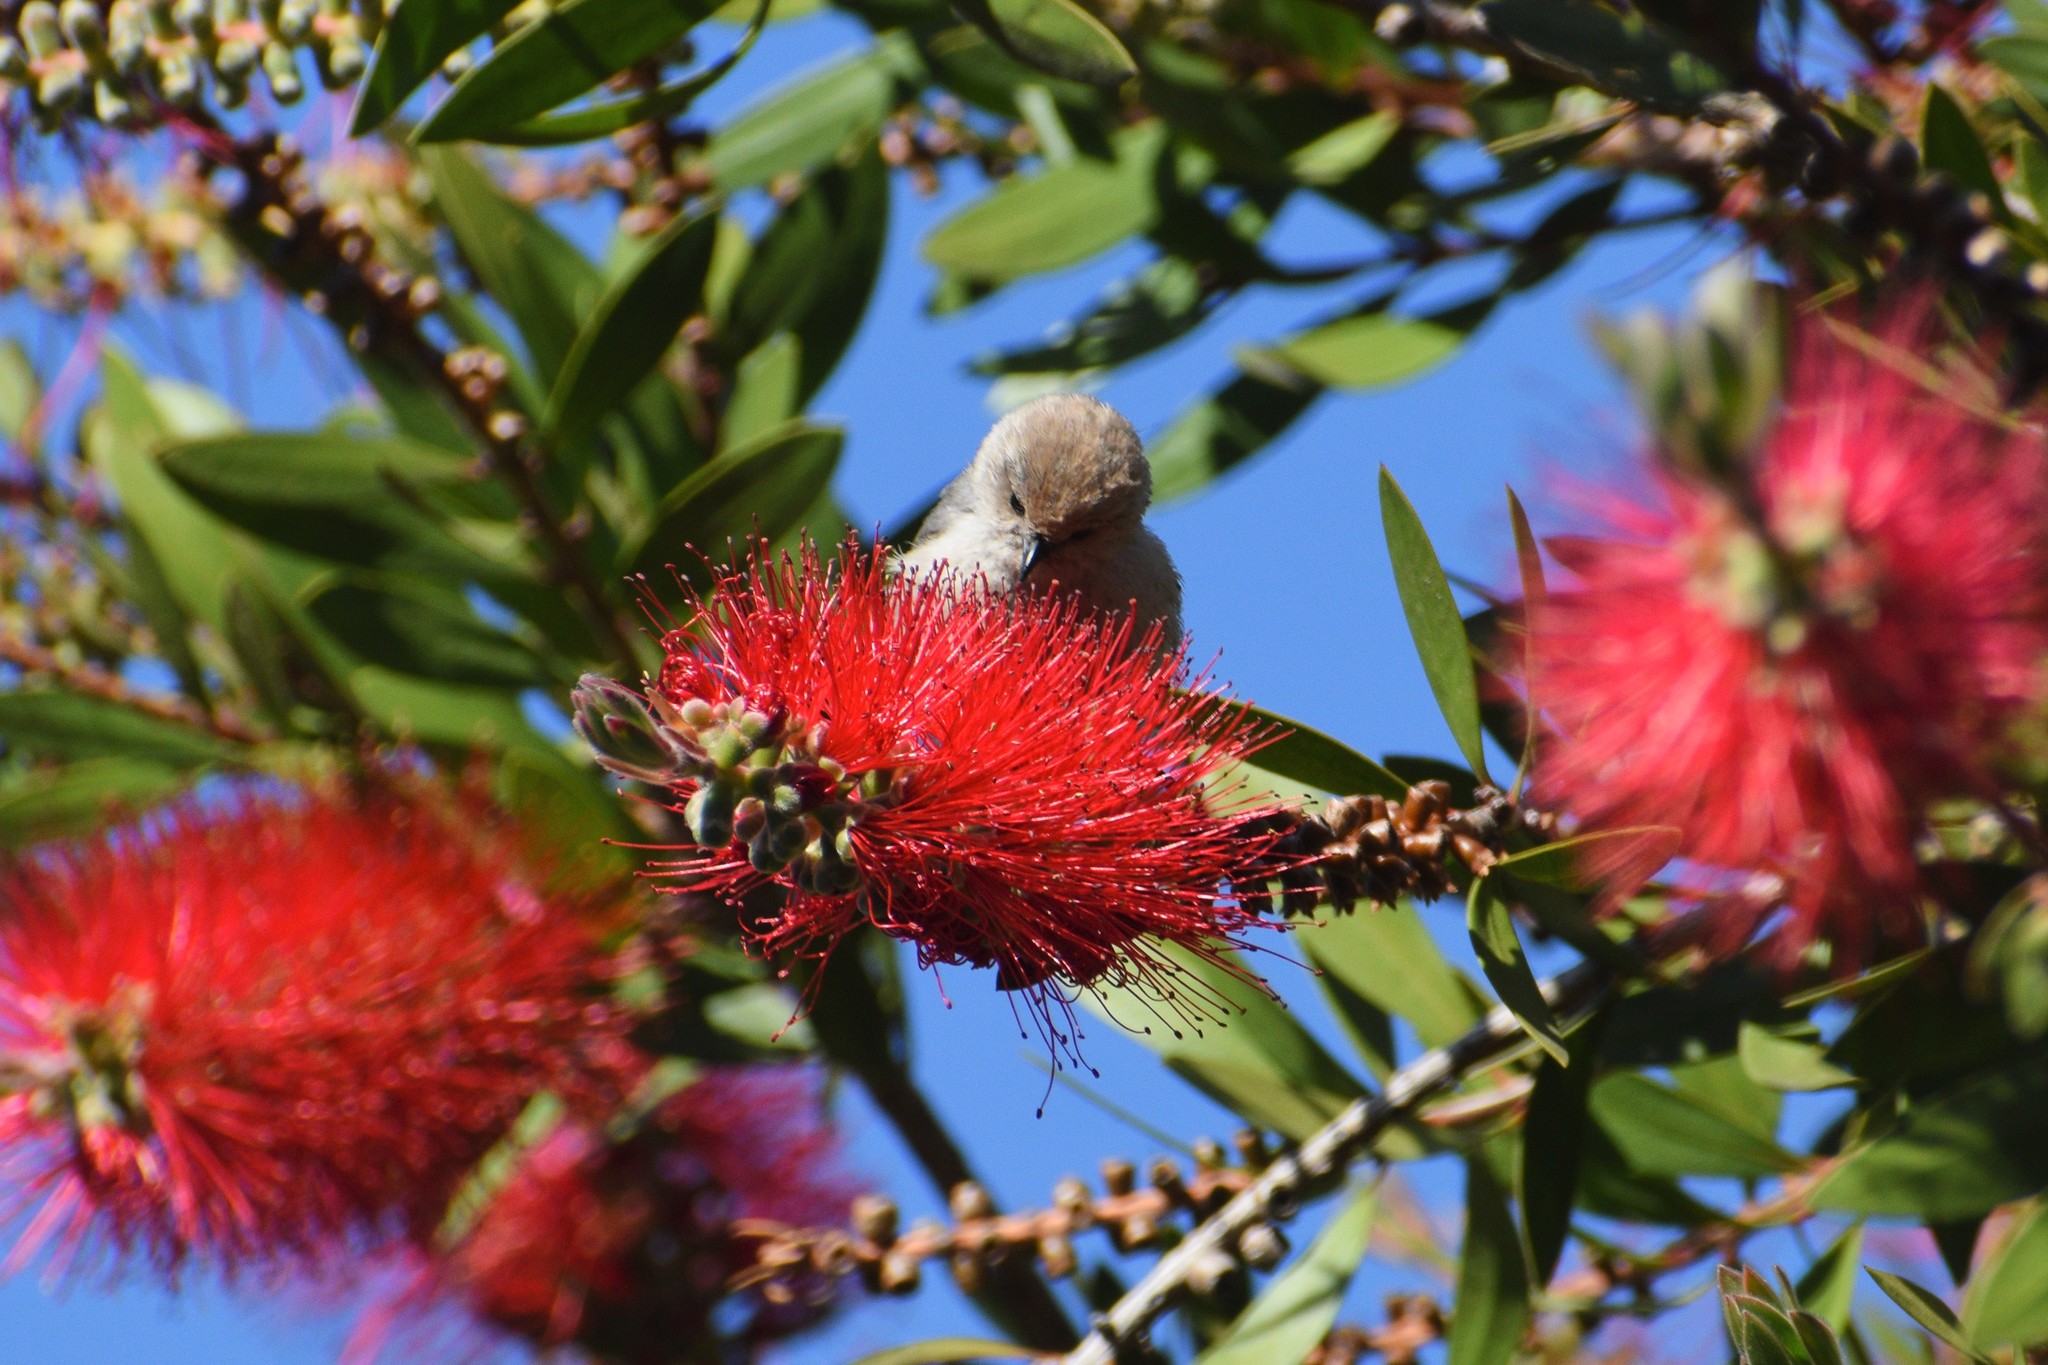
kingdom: Animalia
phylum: Chordata
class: Aves
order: Passeriformes
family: Aegithalidae
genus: Psaltriparus
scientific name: Psaltriparus minimus
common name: American bushtit
